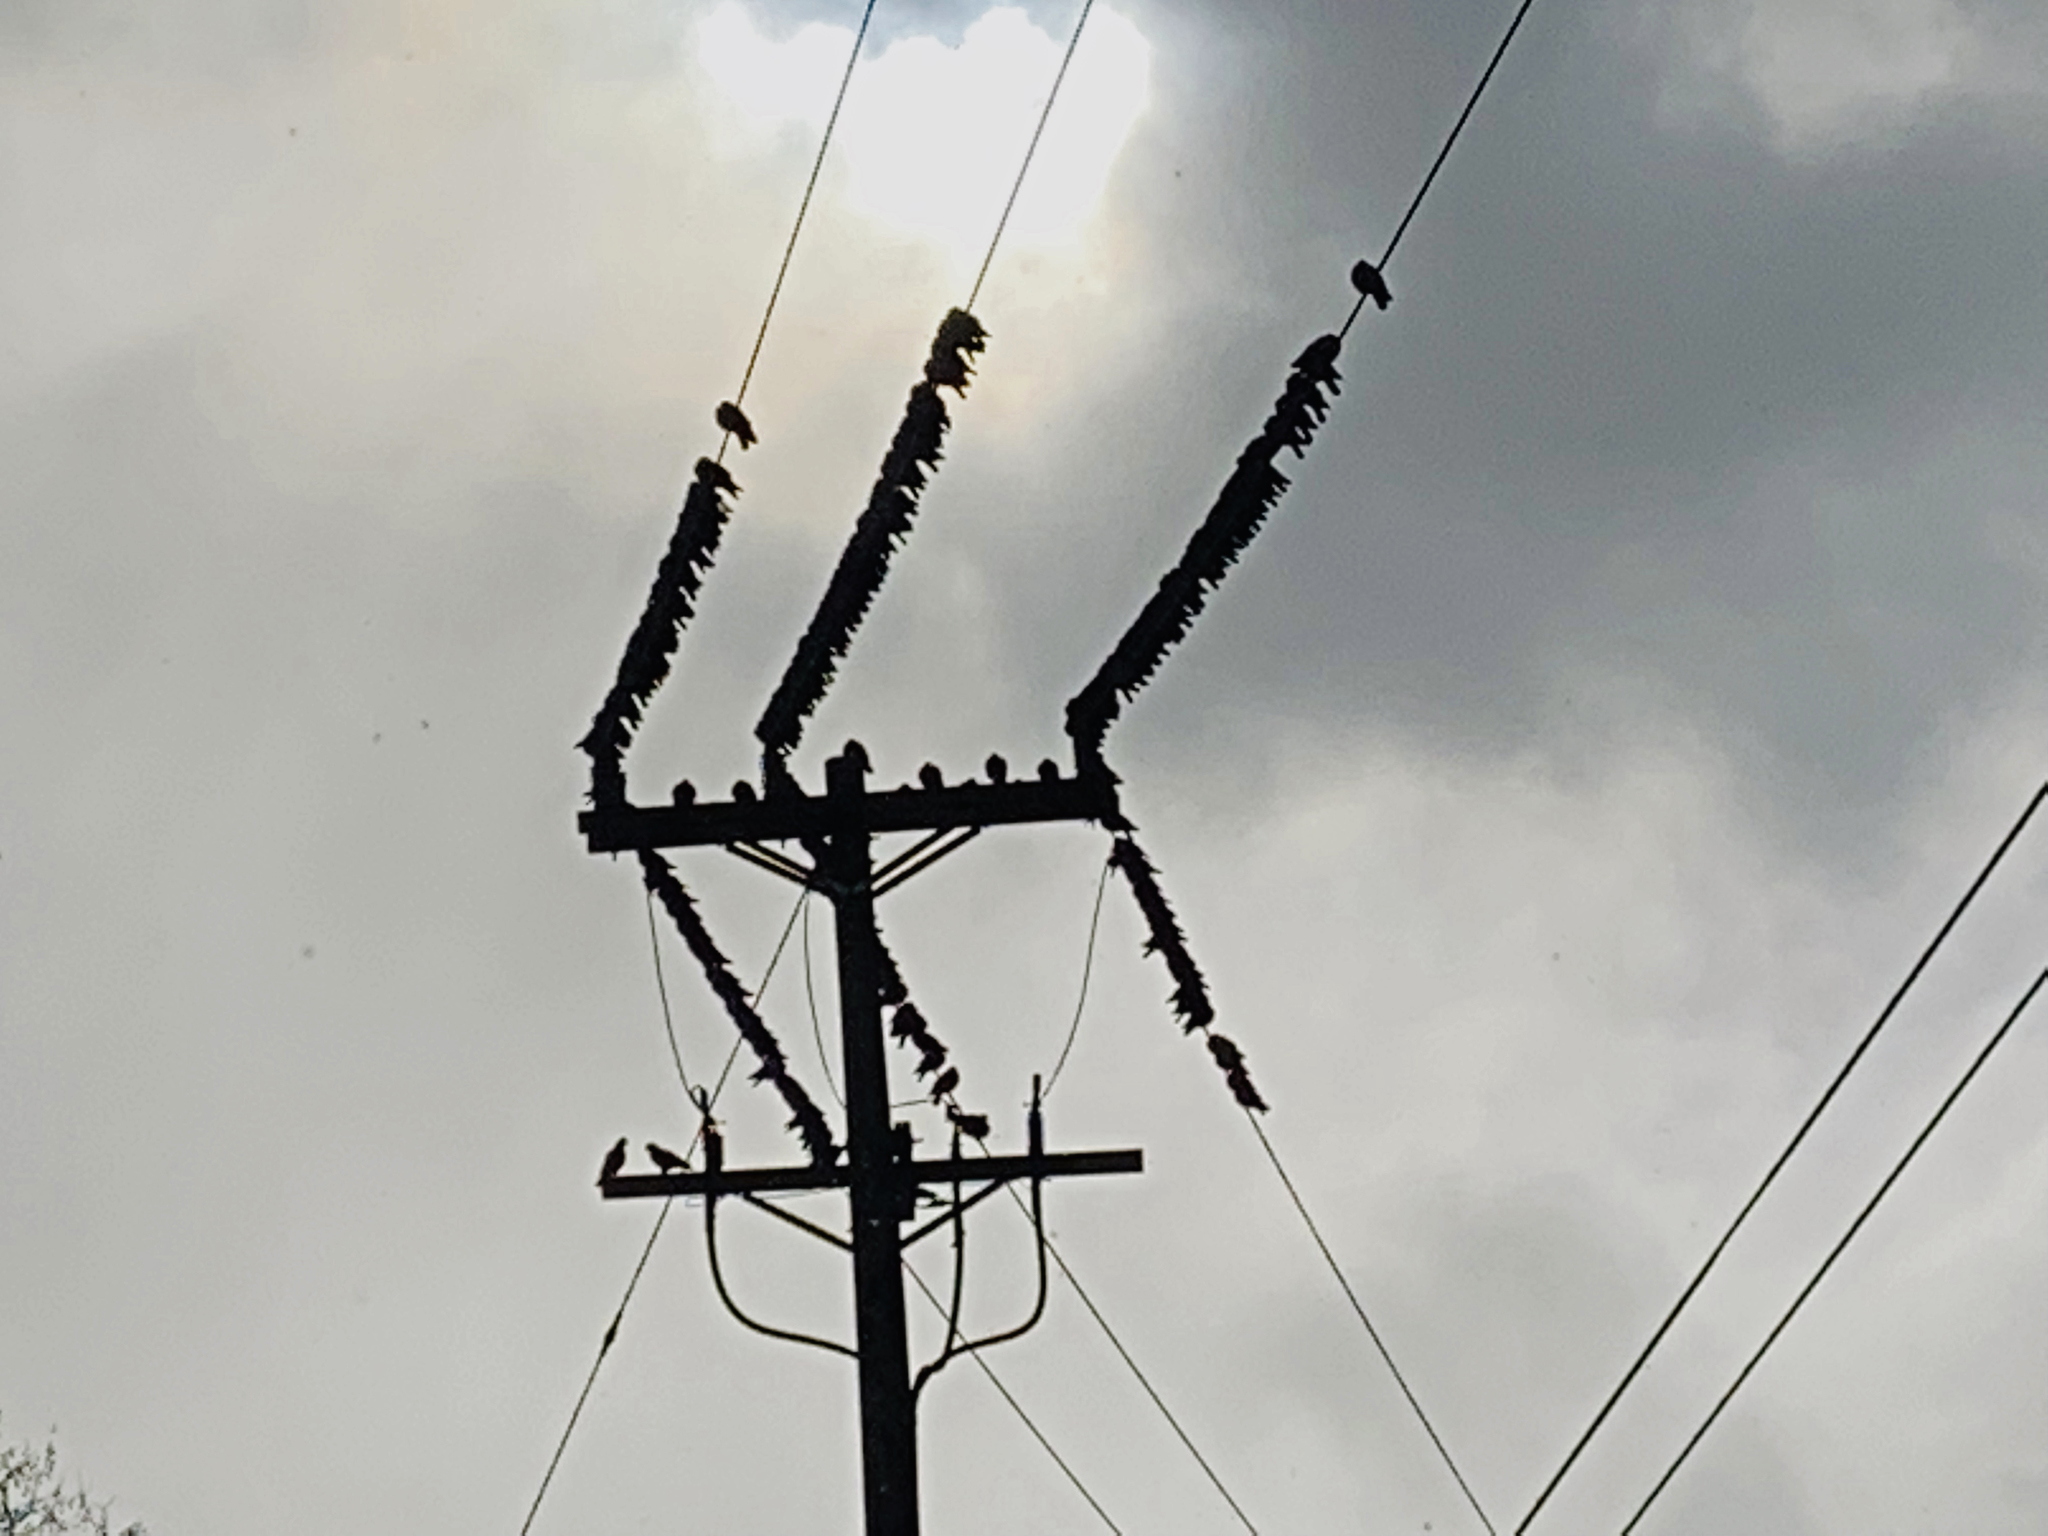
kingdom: Animalia
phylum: Chordata
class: Aves
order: Columbiformes
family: Columbidae
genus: Columba
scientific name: Columba livia
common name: Rock pigeon
